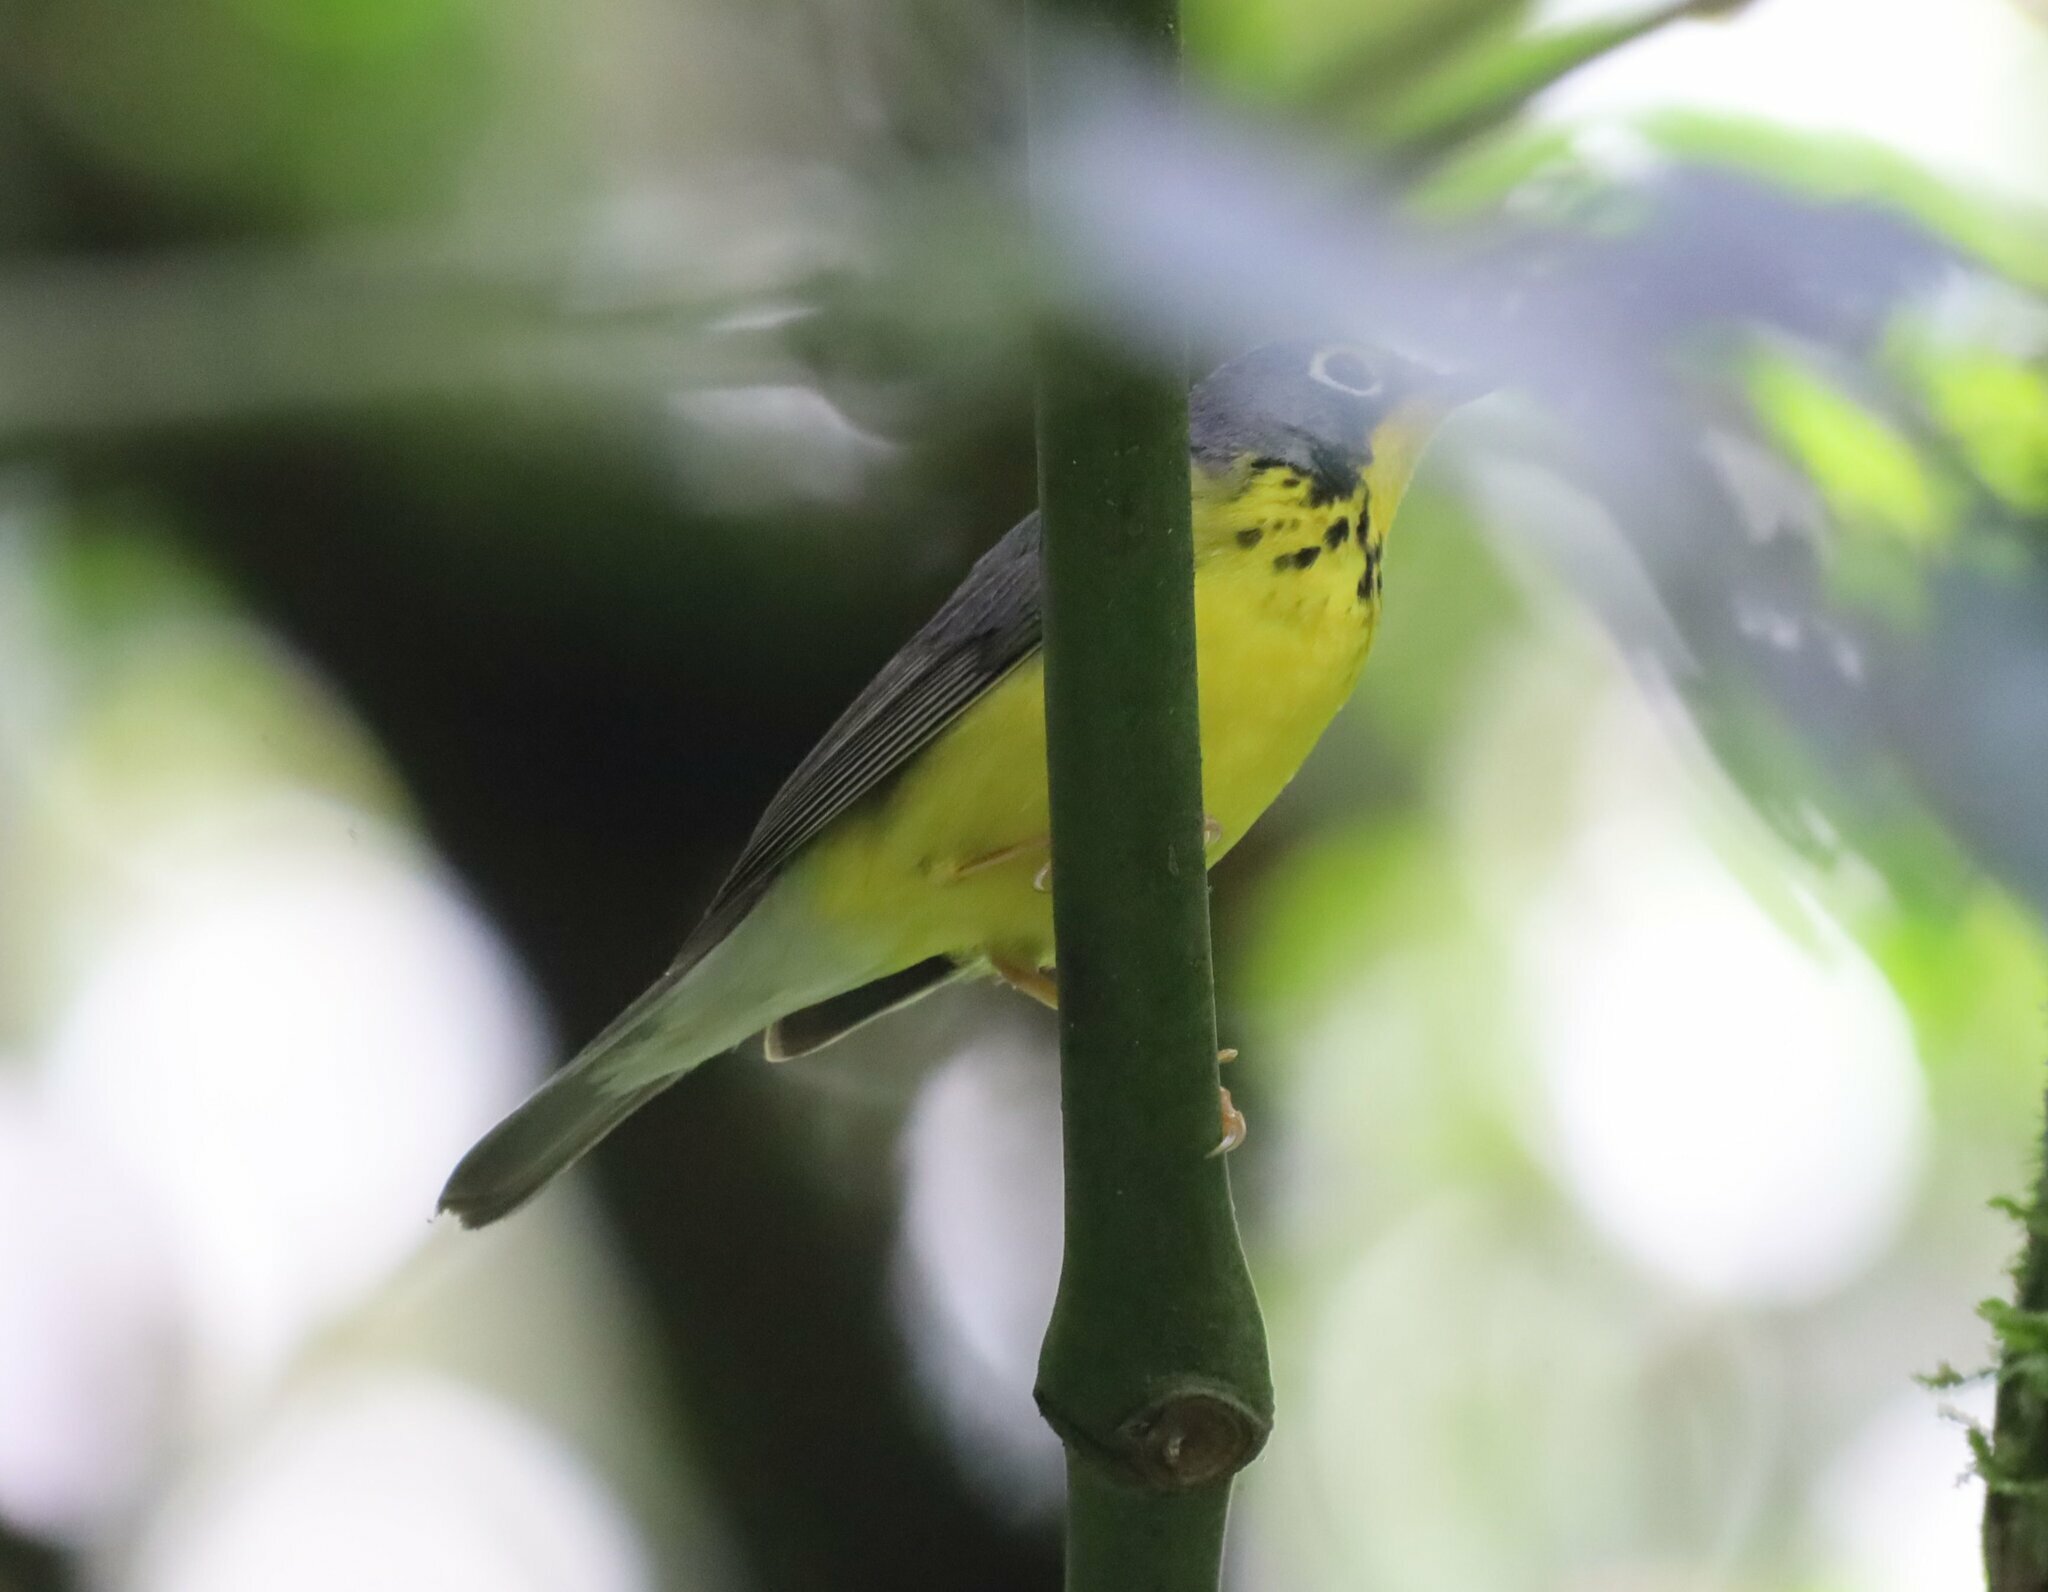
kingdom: Animalia
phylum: Chordata
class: Aves
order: Passeriformes
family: Parulidae
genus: Cardellina
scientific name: Cardellina canadensis
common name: Canada warbler
